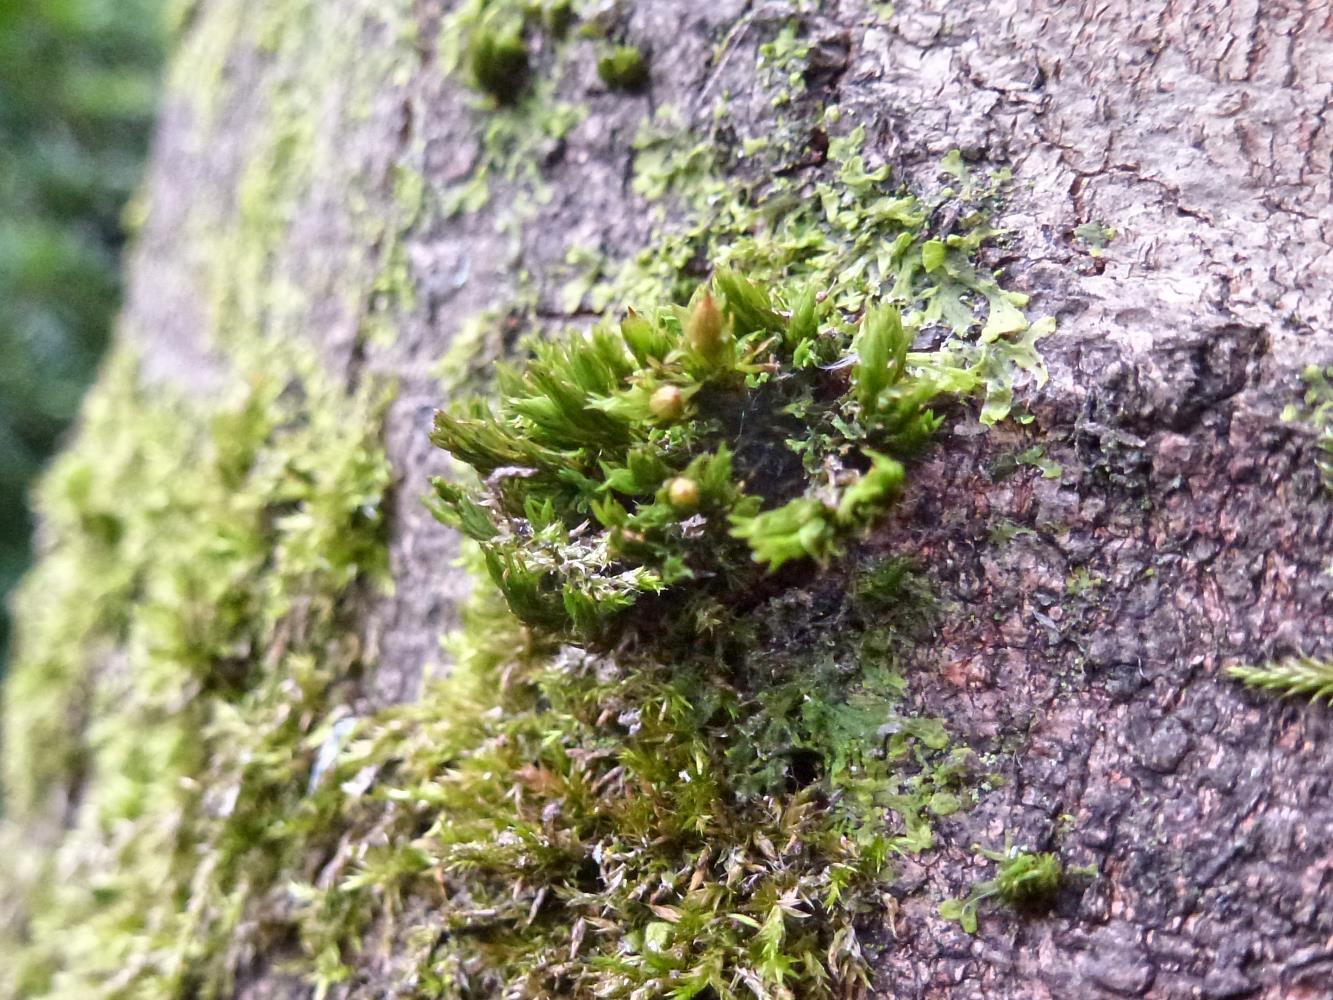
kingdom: Plantae
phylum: Bryophyta
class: Bryopsida
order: Orthotrichales
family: Orthotrichaceae
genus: Lewinskya
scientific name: Lewinskya affinis
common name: Wood bristle-moss
